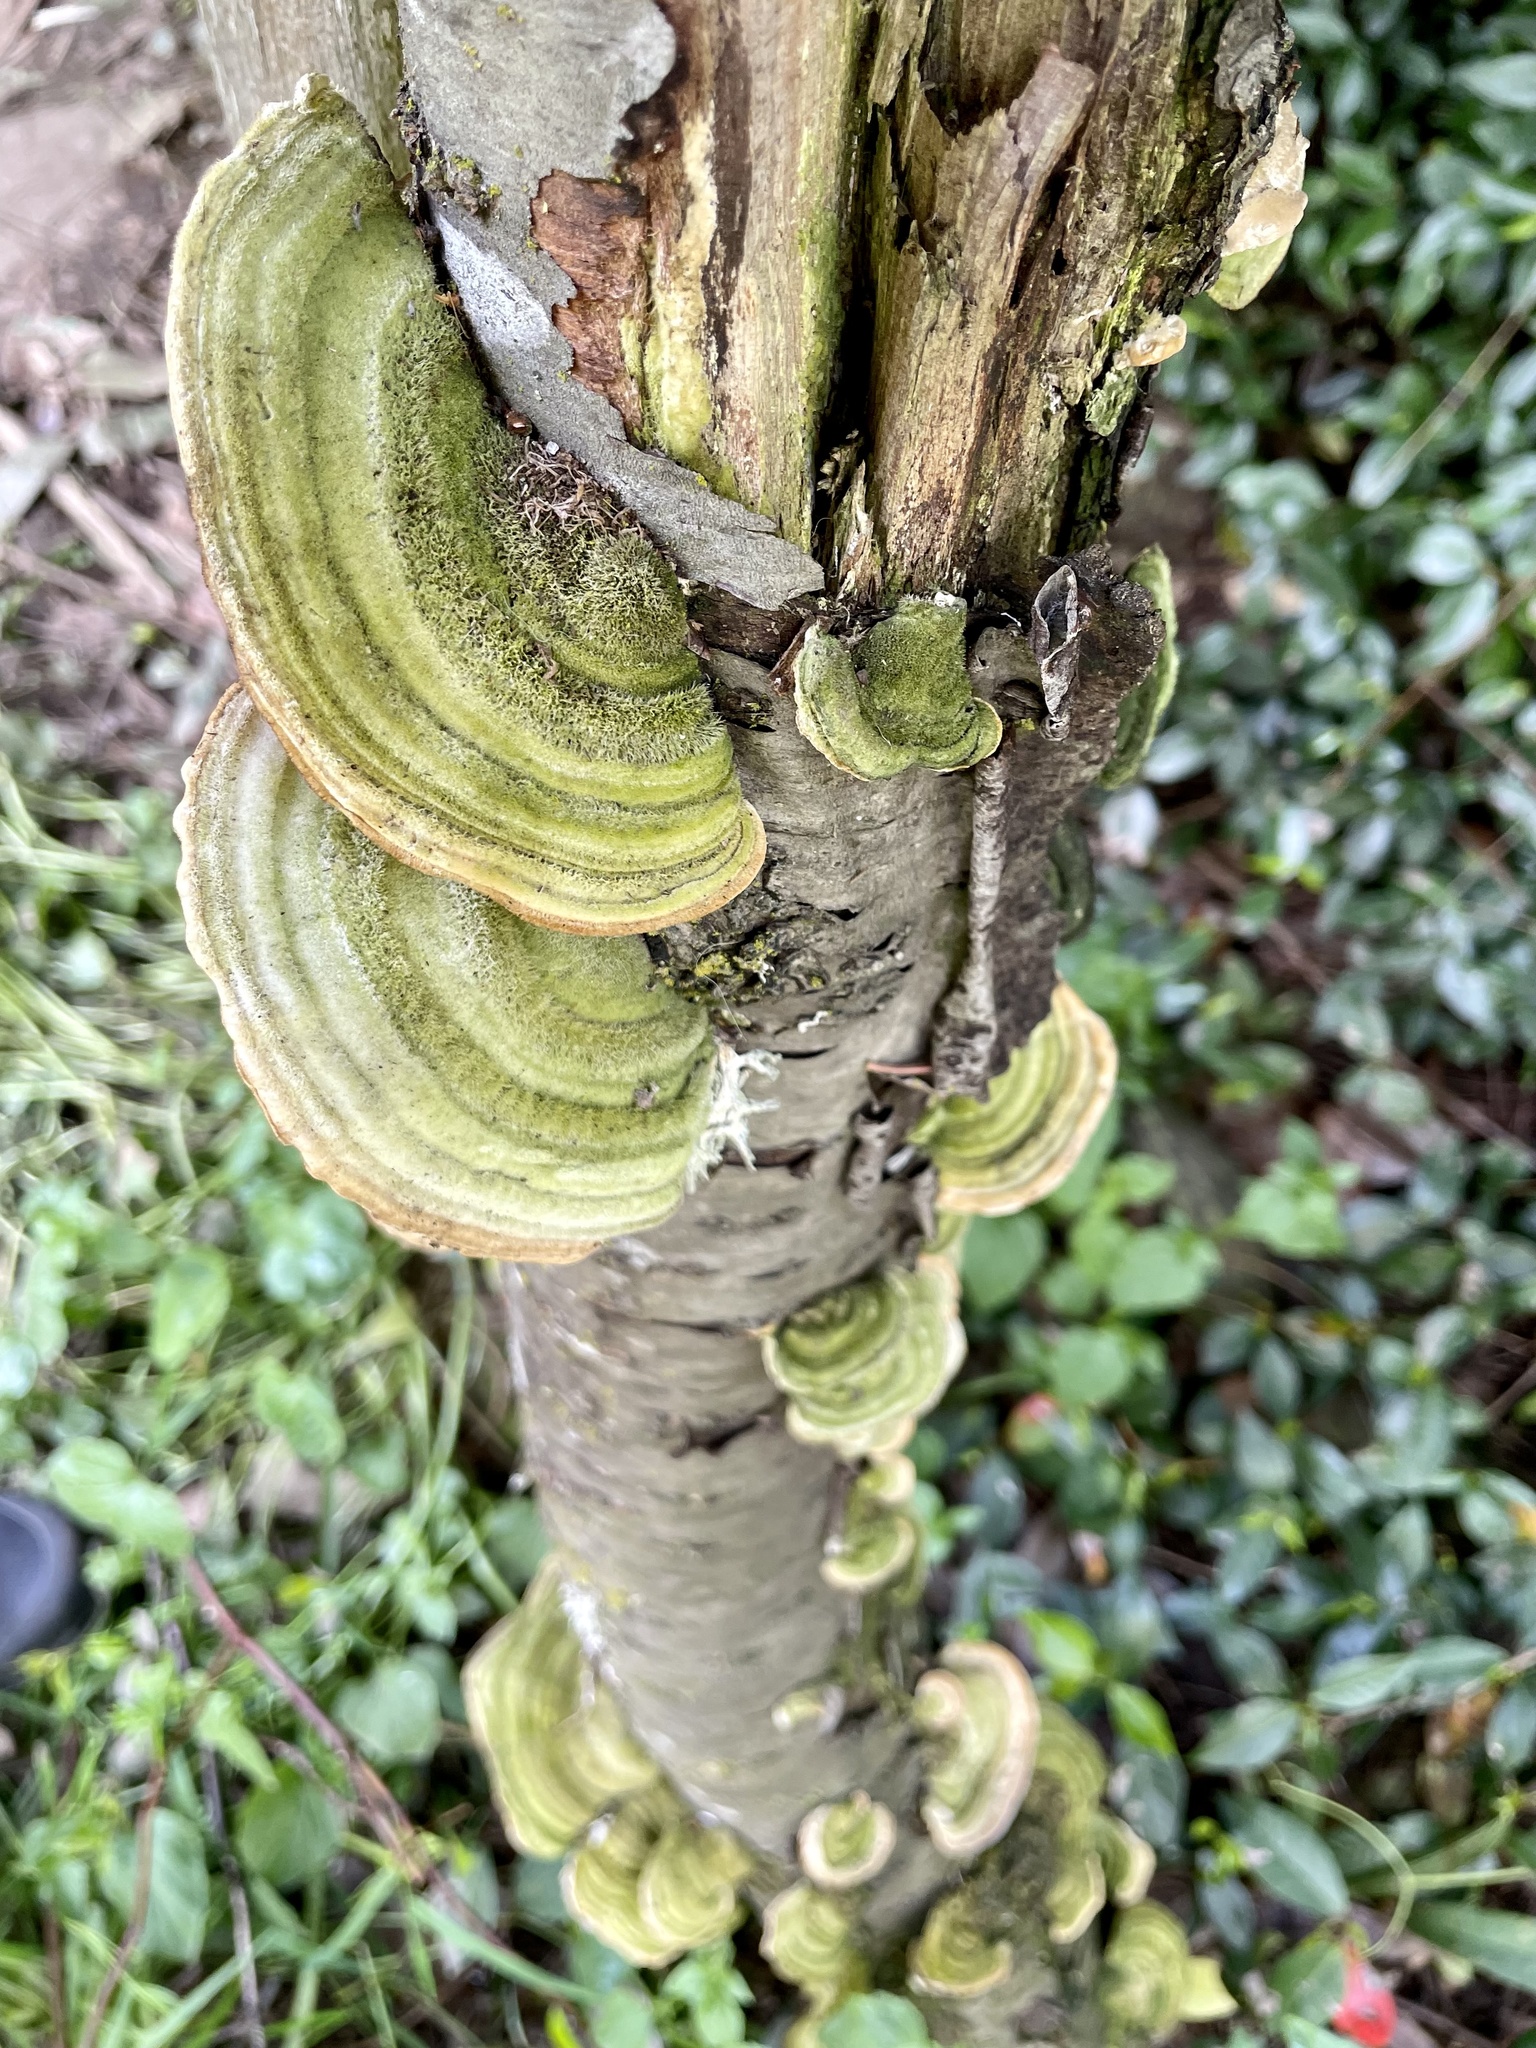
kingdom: Fungi
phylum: Basidiomycota
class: Agaricomycetes
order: Polyporales
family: Cerrenaceae
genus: Cerrena
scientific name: Cerrena unicolor
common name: Mossy maze polypore
